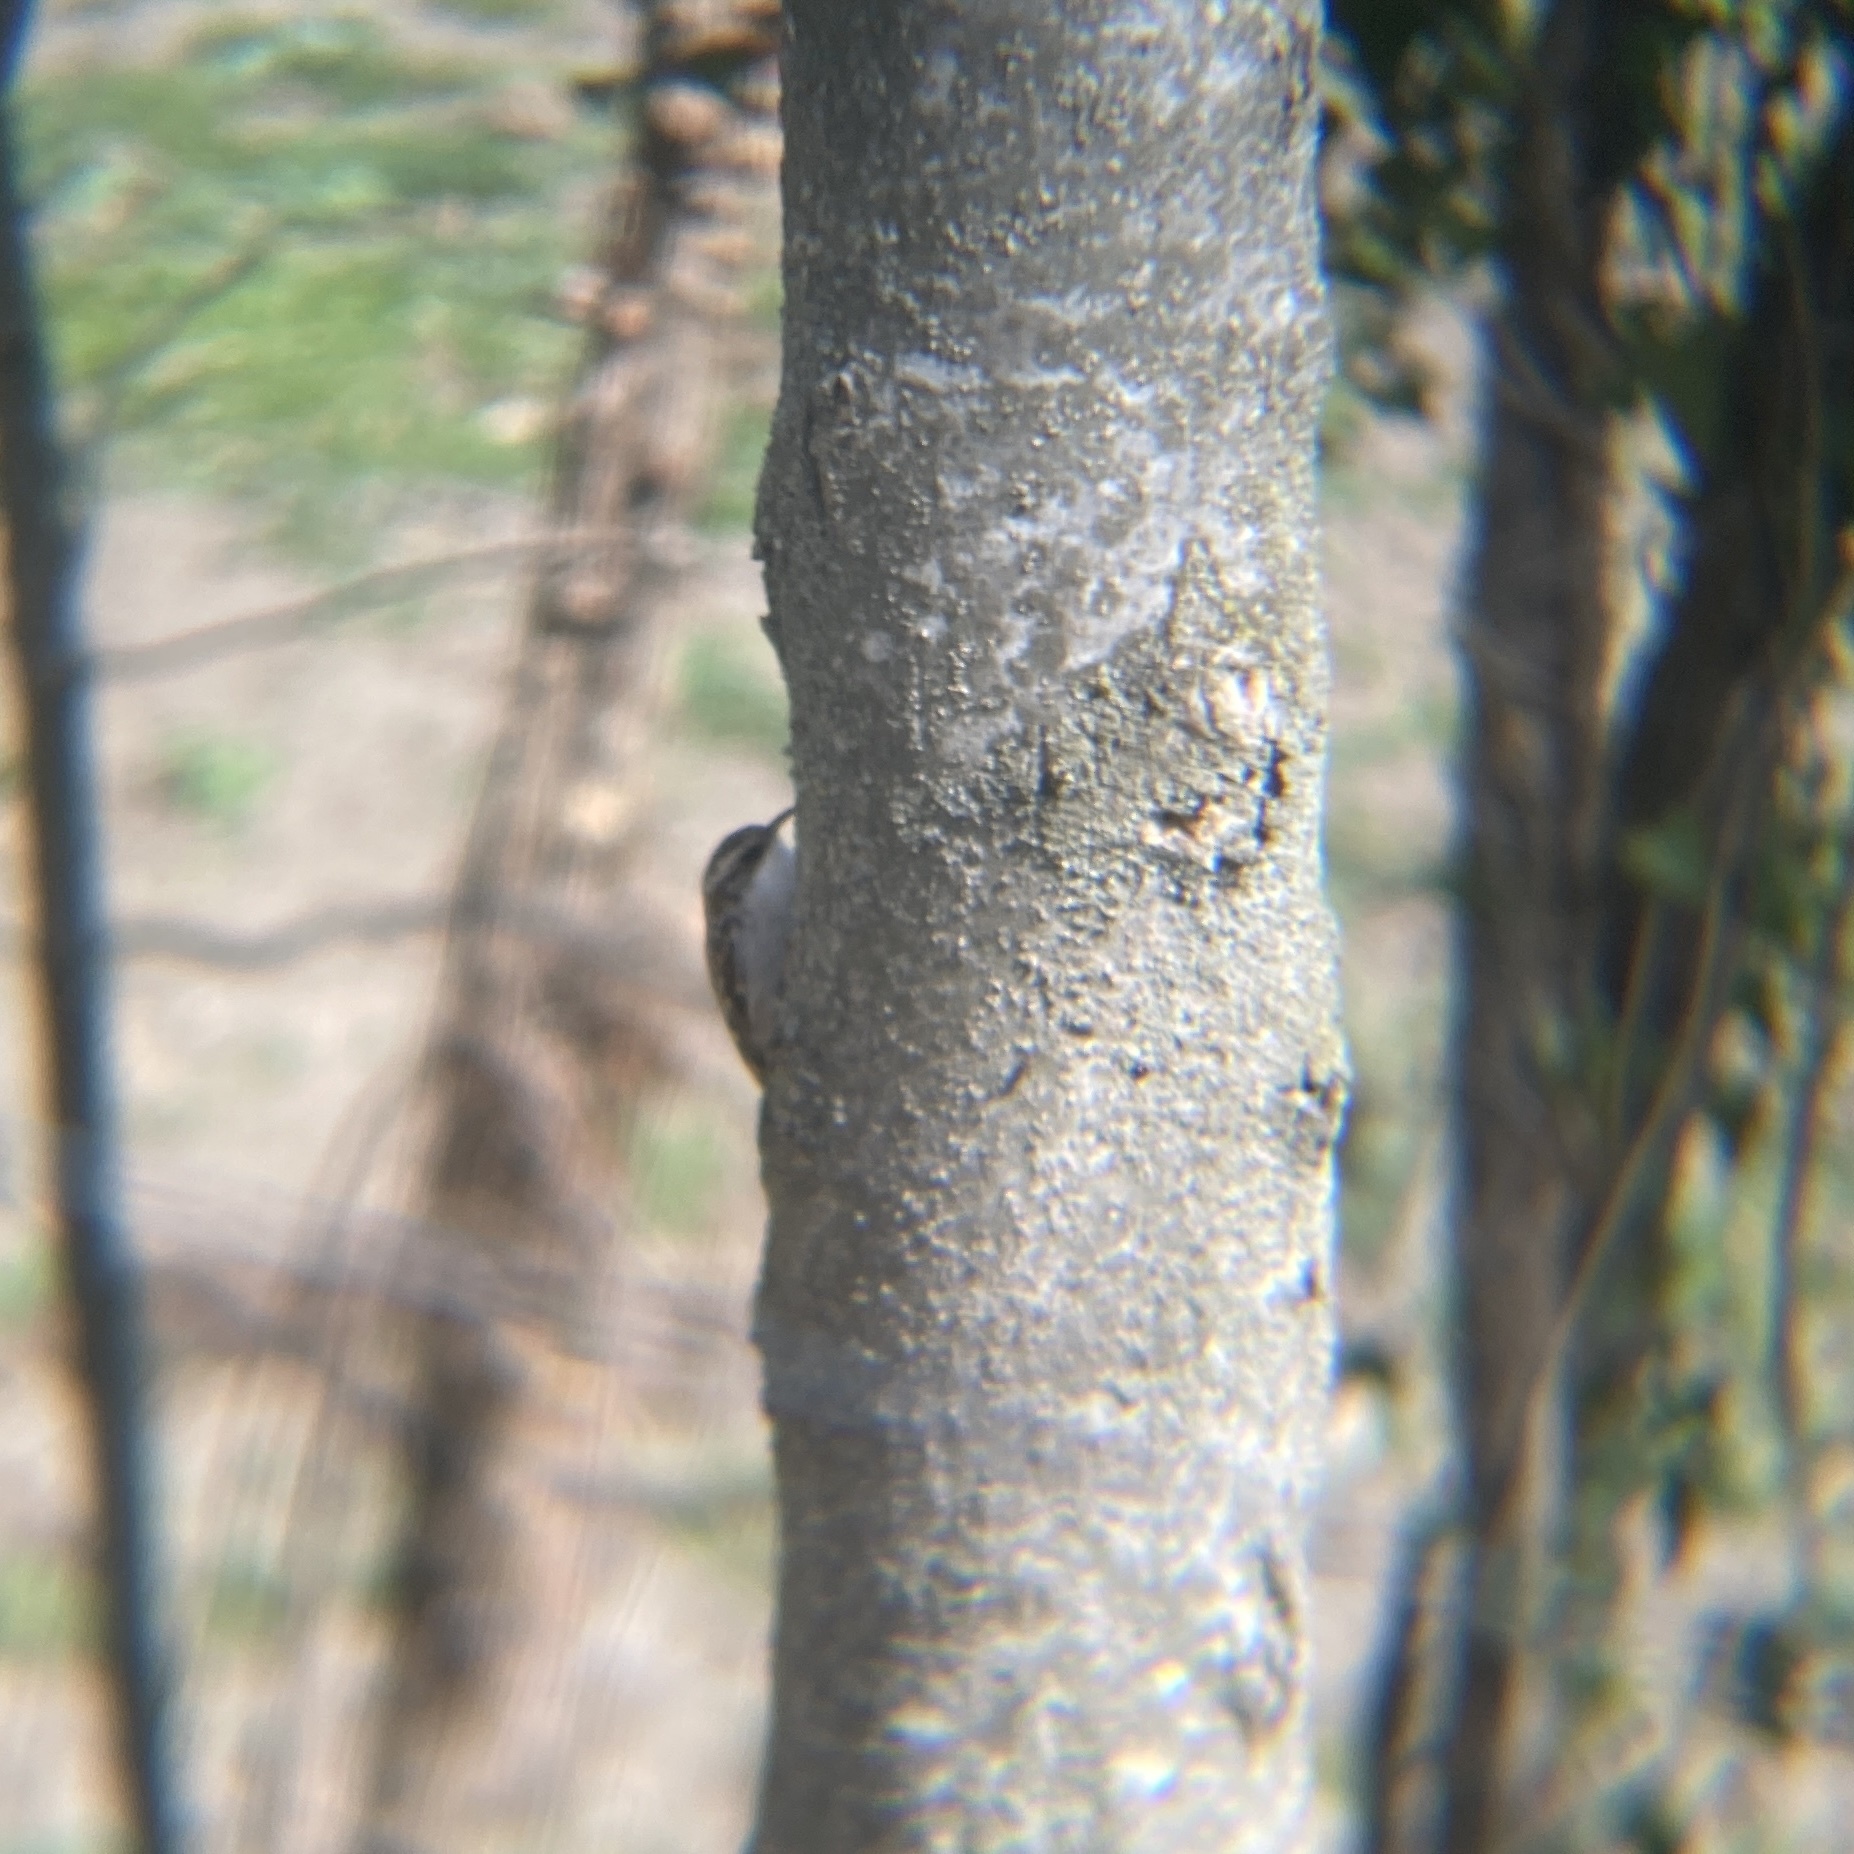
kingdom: Animalia
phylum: Chordata
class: Aves
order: Passeriformes
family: Certhiidae
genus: Certhia
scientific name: Certhia brachydactyla
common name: Short-toed treecreeper
